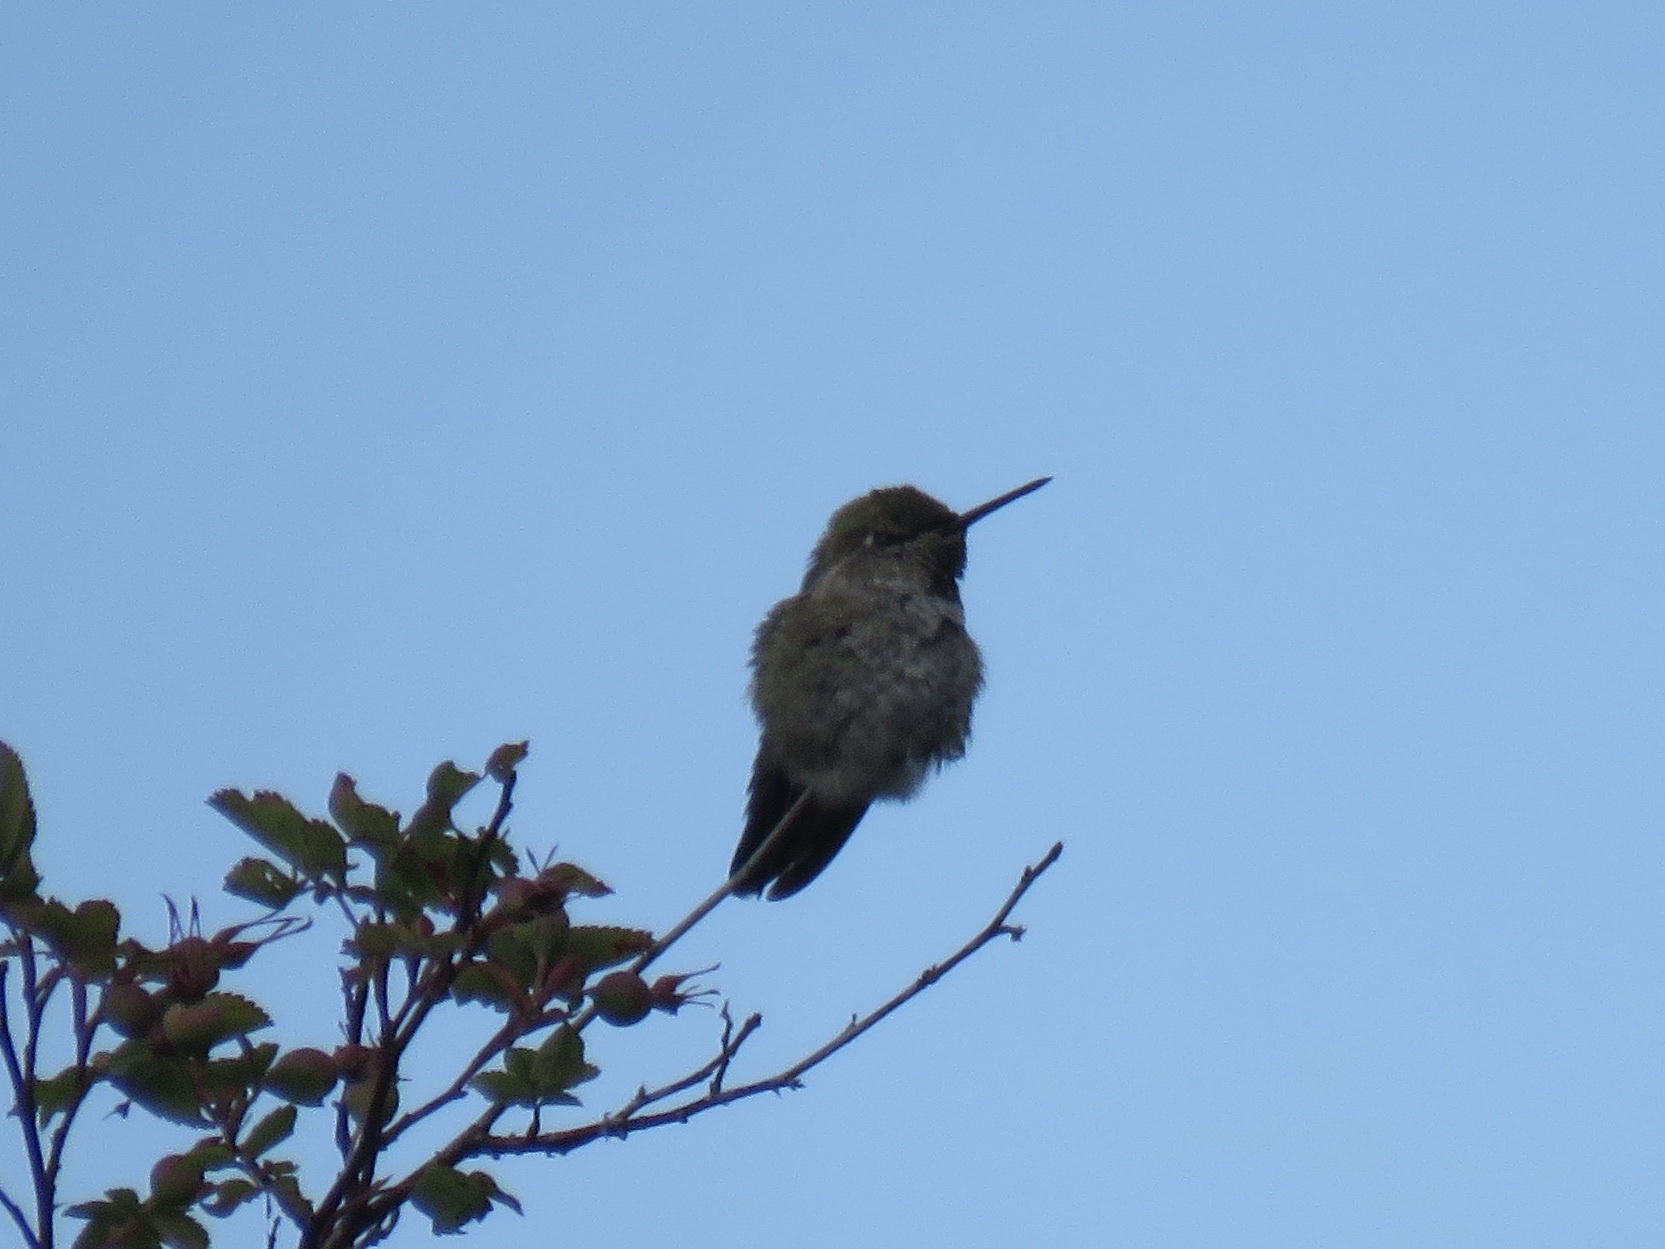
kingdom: Animalia
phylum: Chordata
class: Aves
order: Apodiformes
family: Trochilidae
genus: Calypte
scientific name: Calypte anna
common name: Anna's hummingbird
